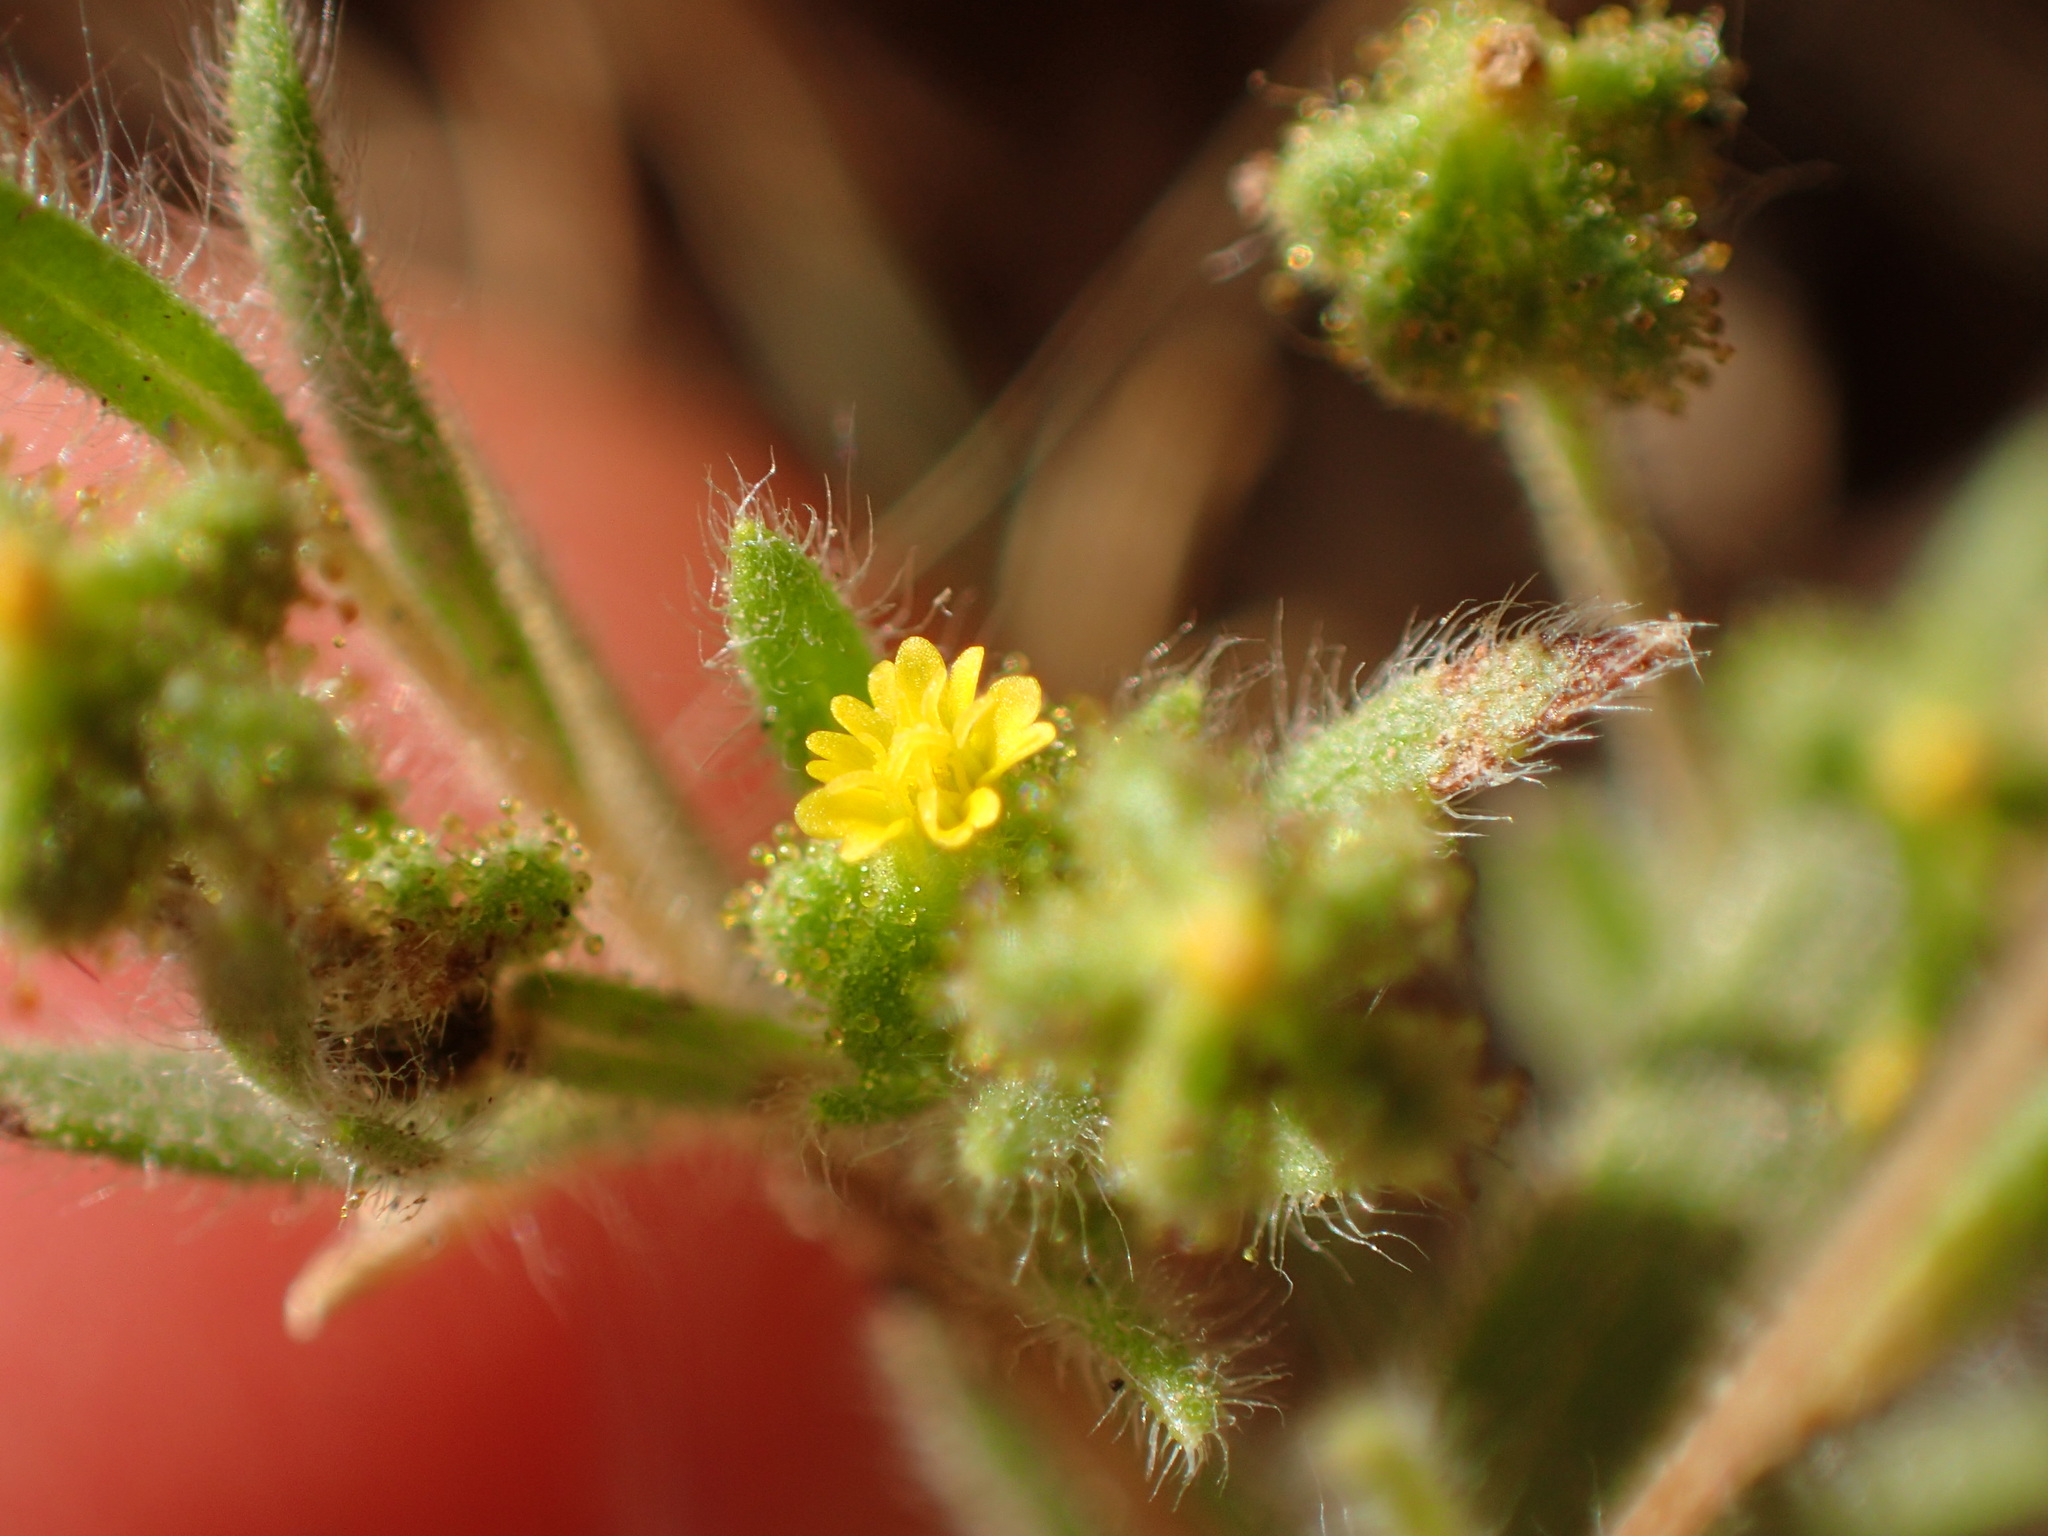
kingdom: Plantae
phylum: Tracheophyta
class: Magnoliopsida
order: Asterales
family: Asteraceae
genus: Madia
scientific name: Madia exigua
